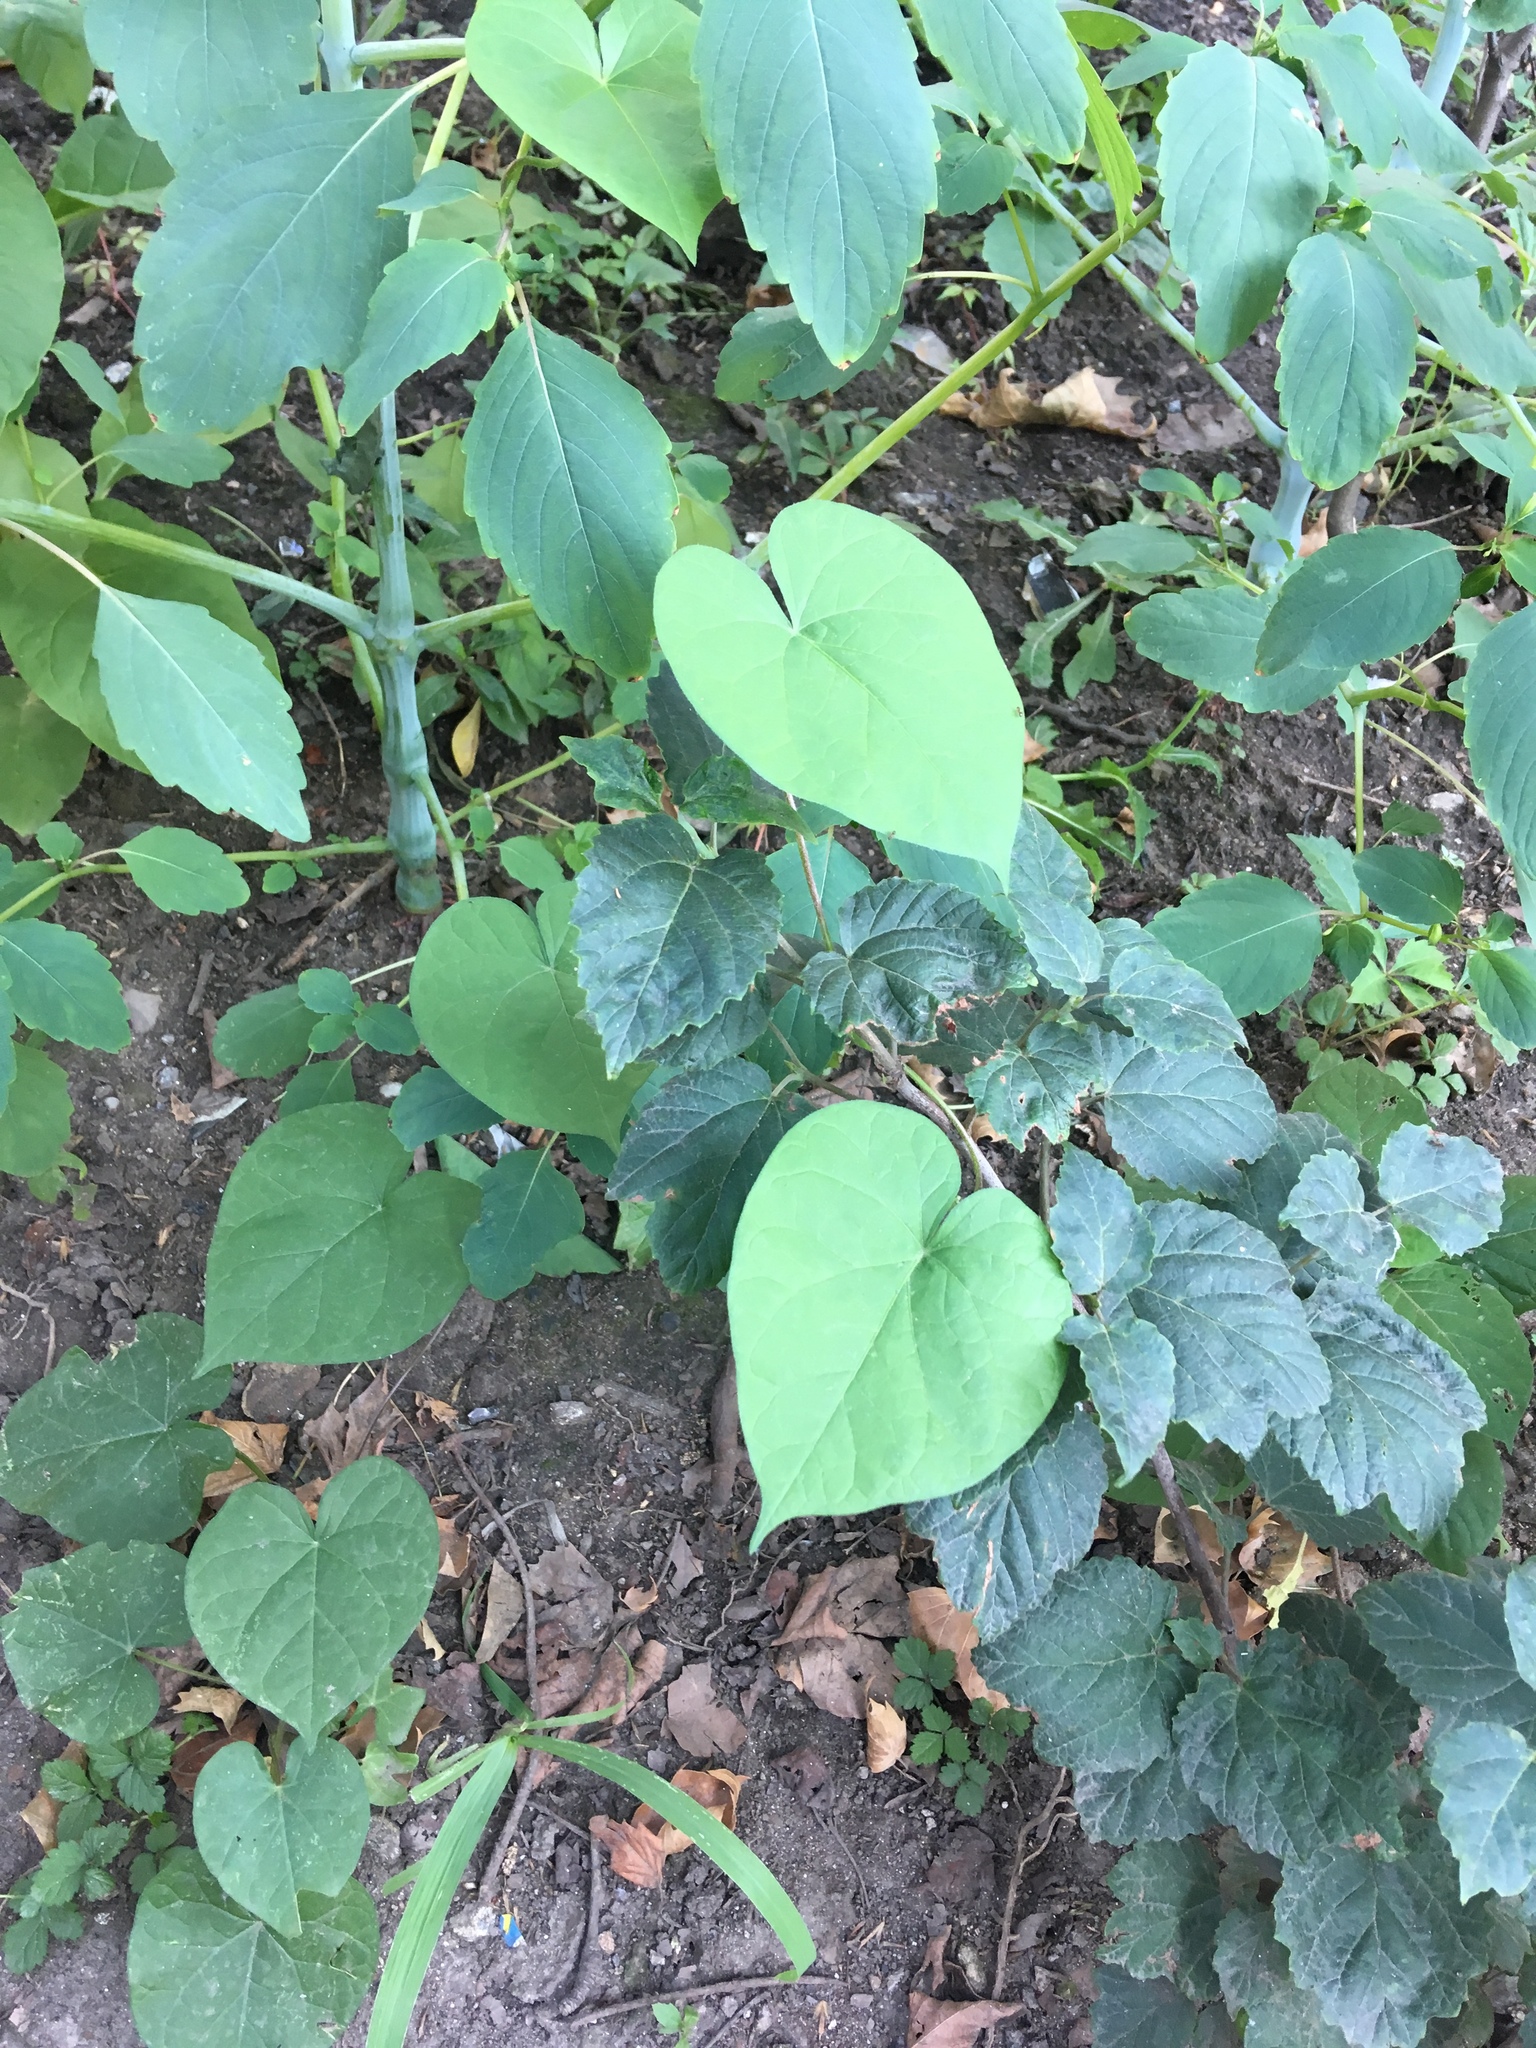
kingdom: Plantae
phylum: Tracheophyta
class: Magnoliopsida
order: Solanales
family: Convolvulaceae
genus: Ipomoea
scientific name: Ipomoea purpurea
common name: Common morning-glory
